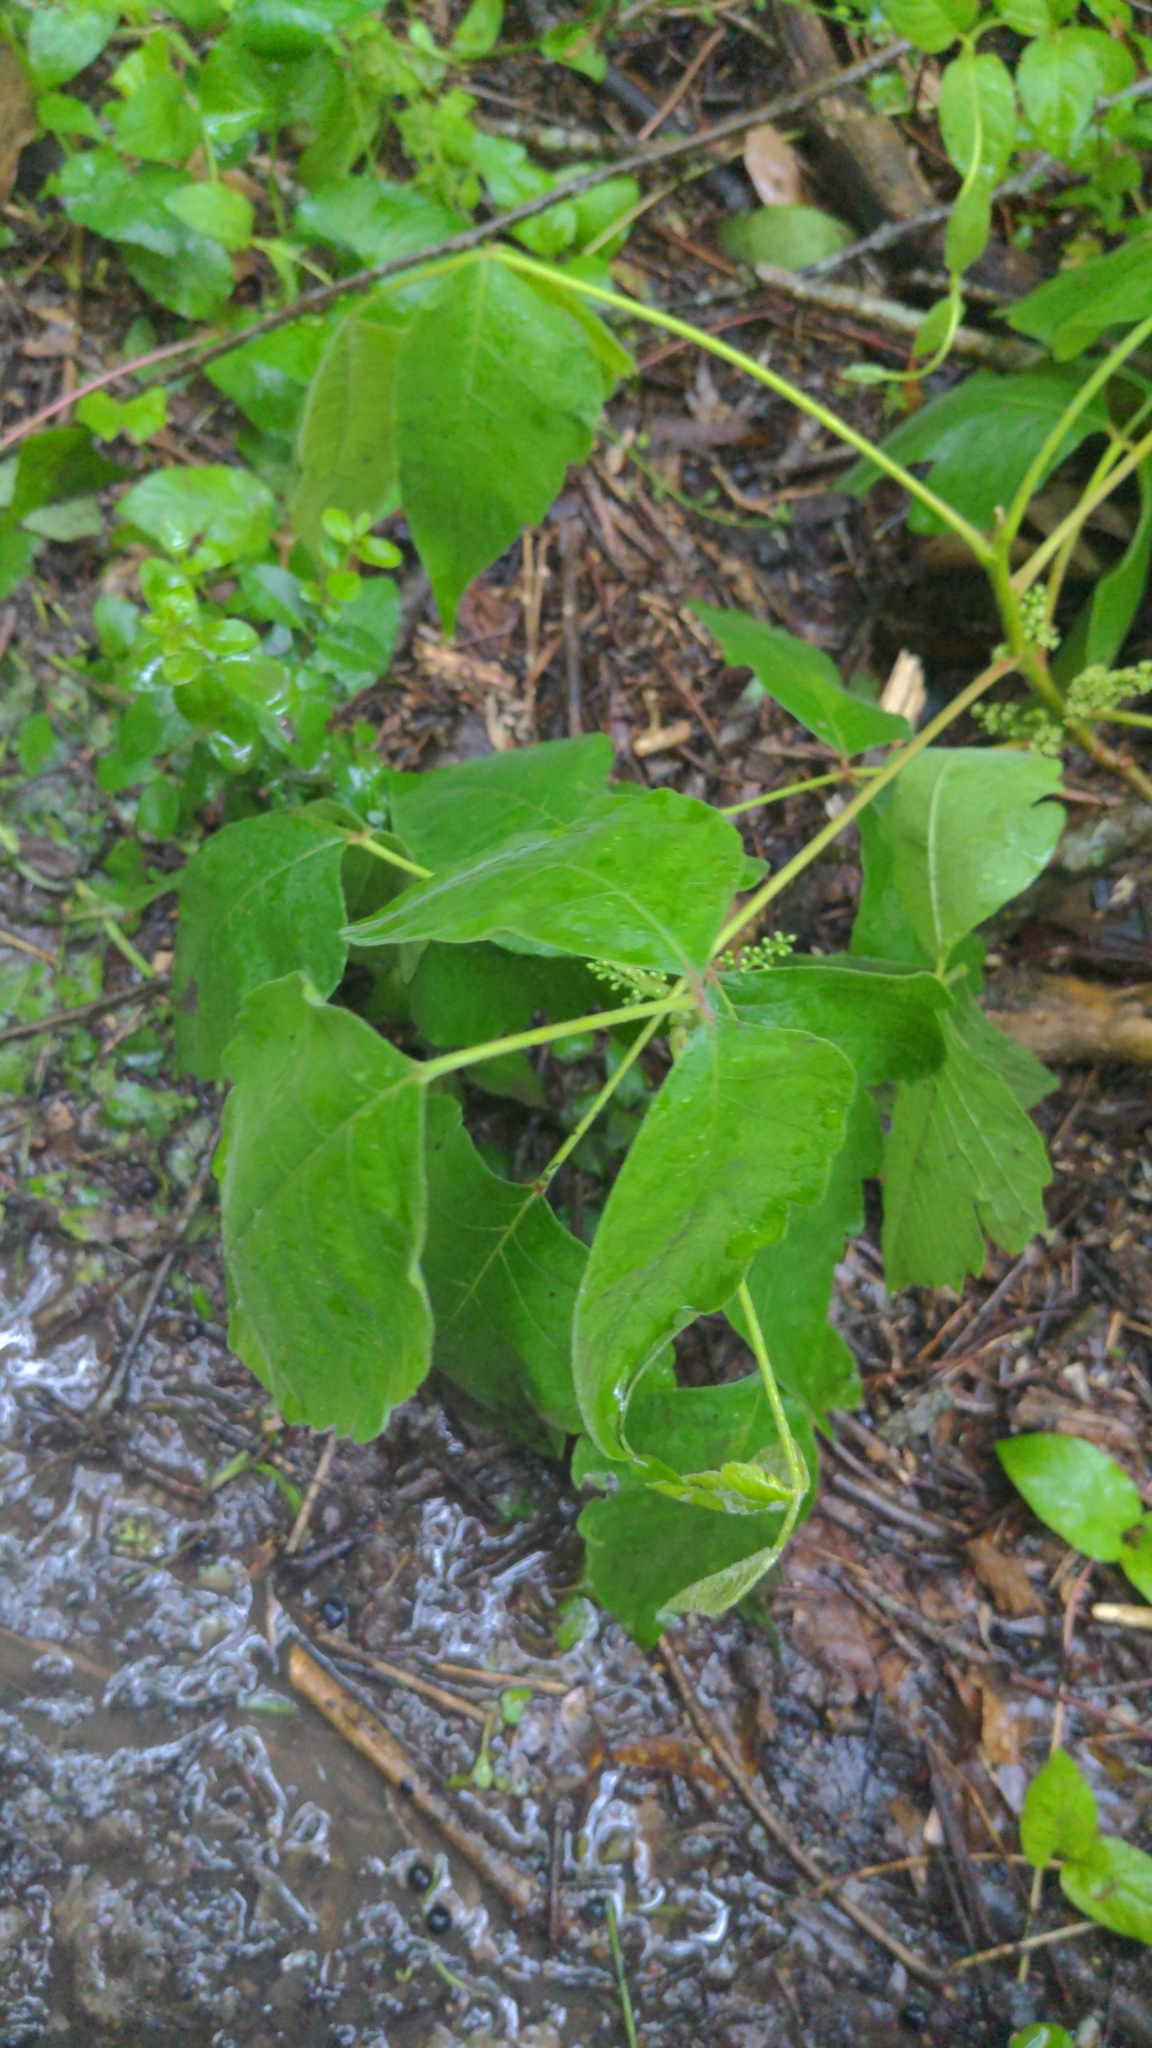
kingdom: Plantae
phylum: Tracheophyta
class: Magnoliopsida
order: Sapindales
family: Anacardiaceae
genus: Toxicodendron
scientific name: Toxicodendron radicans
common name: Poison ivy
